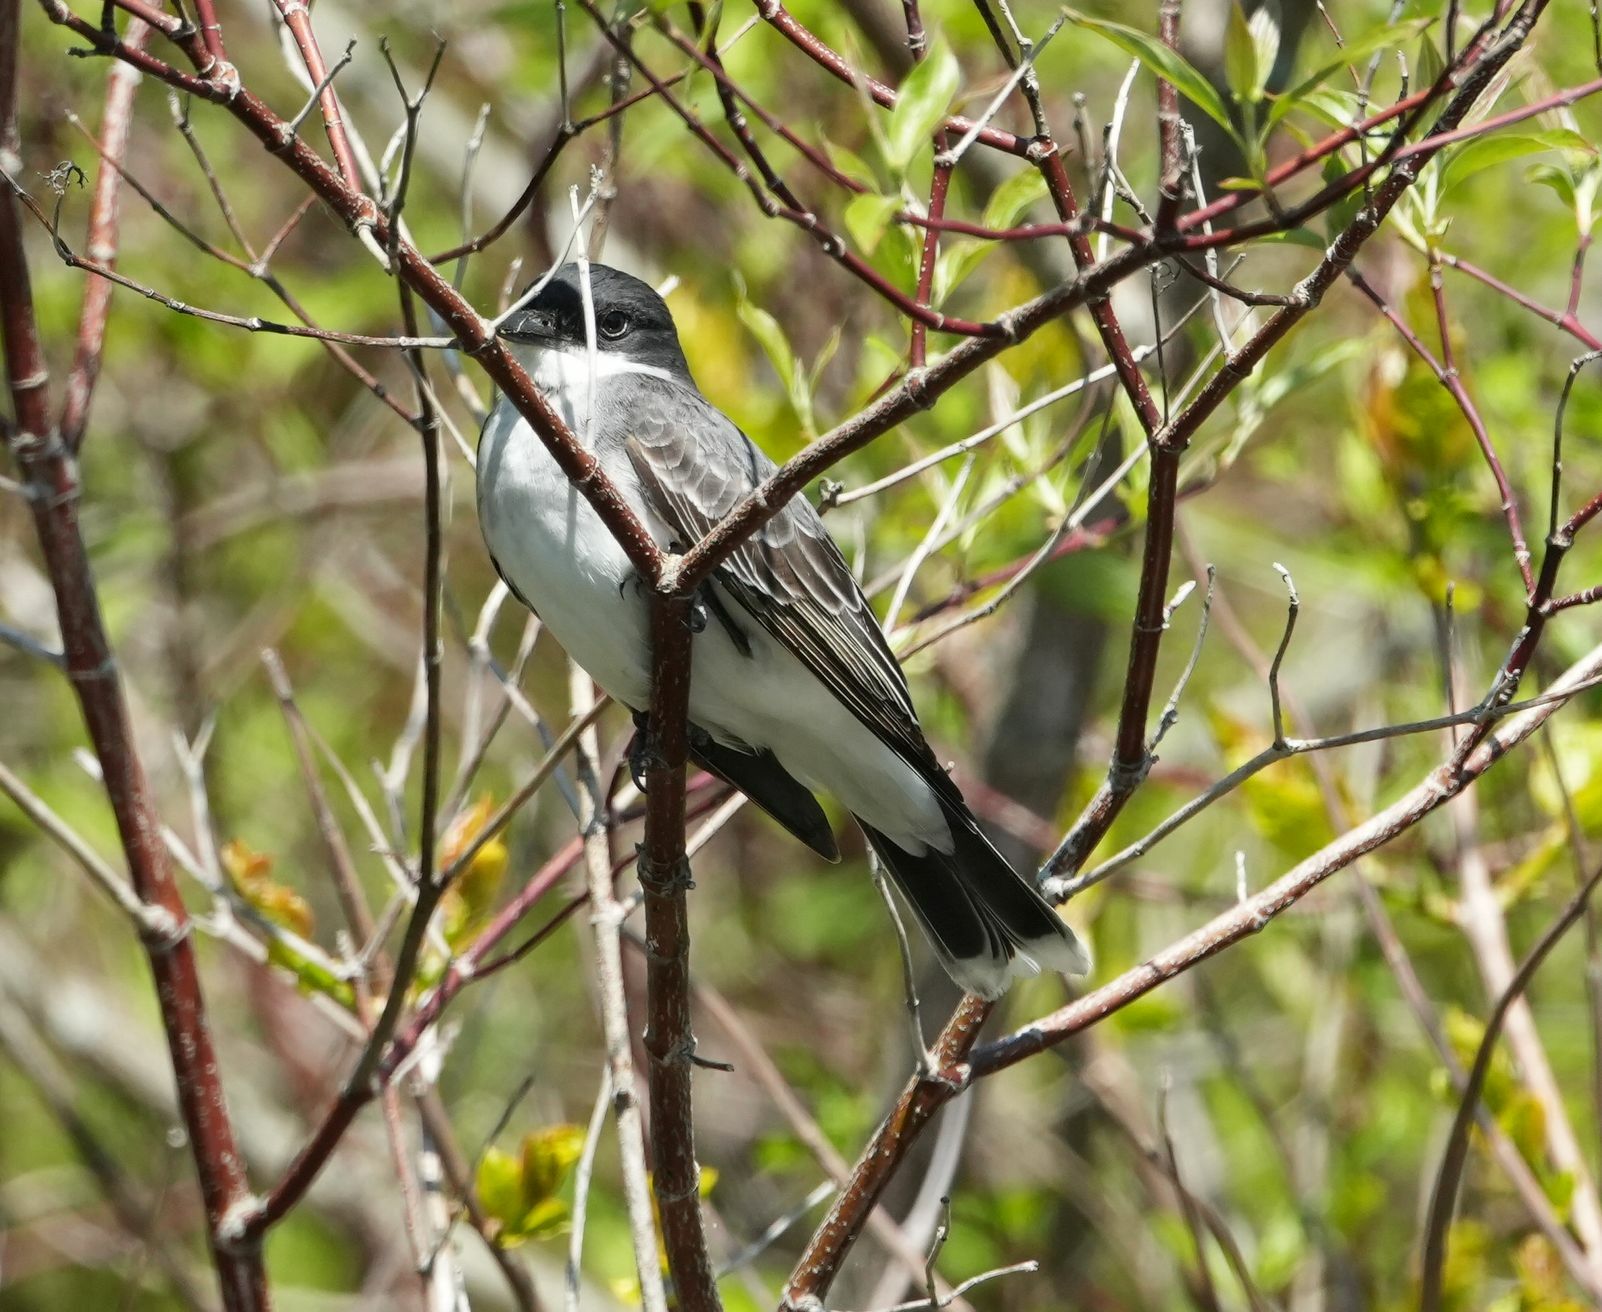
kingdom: Animalia
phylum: Chordata
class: Aves
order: Passeriformes
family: Tyrannidae
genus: Tyrannus
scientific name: Tyrannus tyrannus
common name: Eastern kingbird
